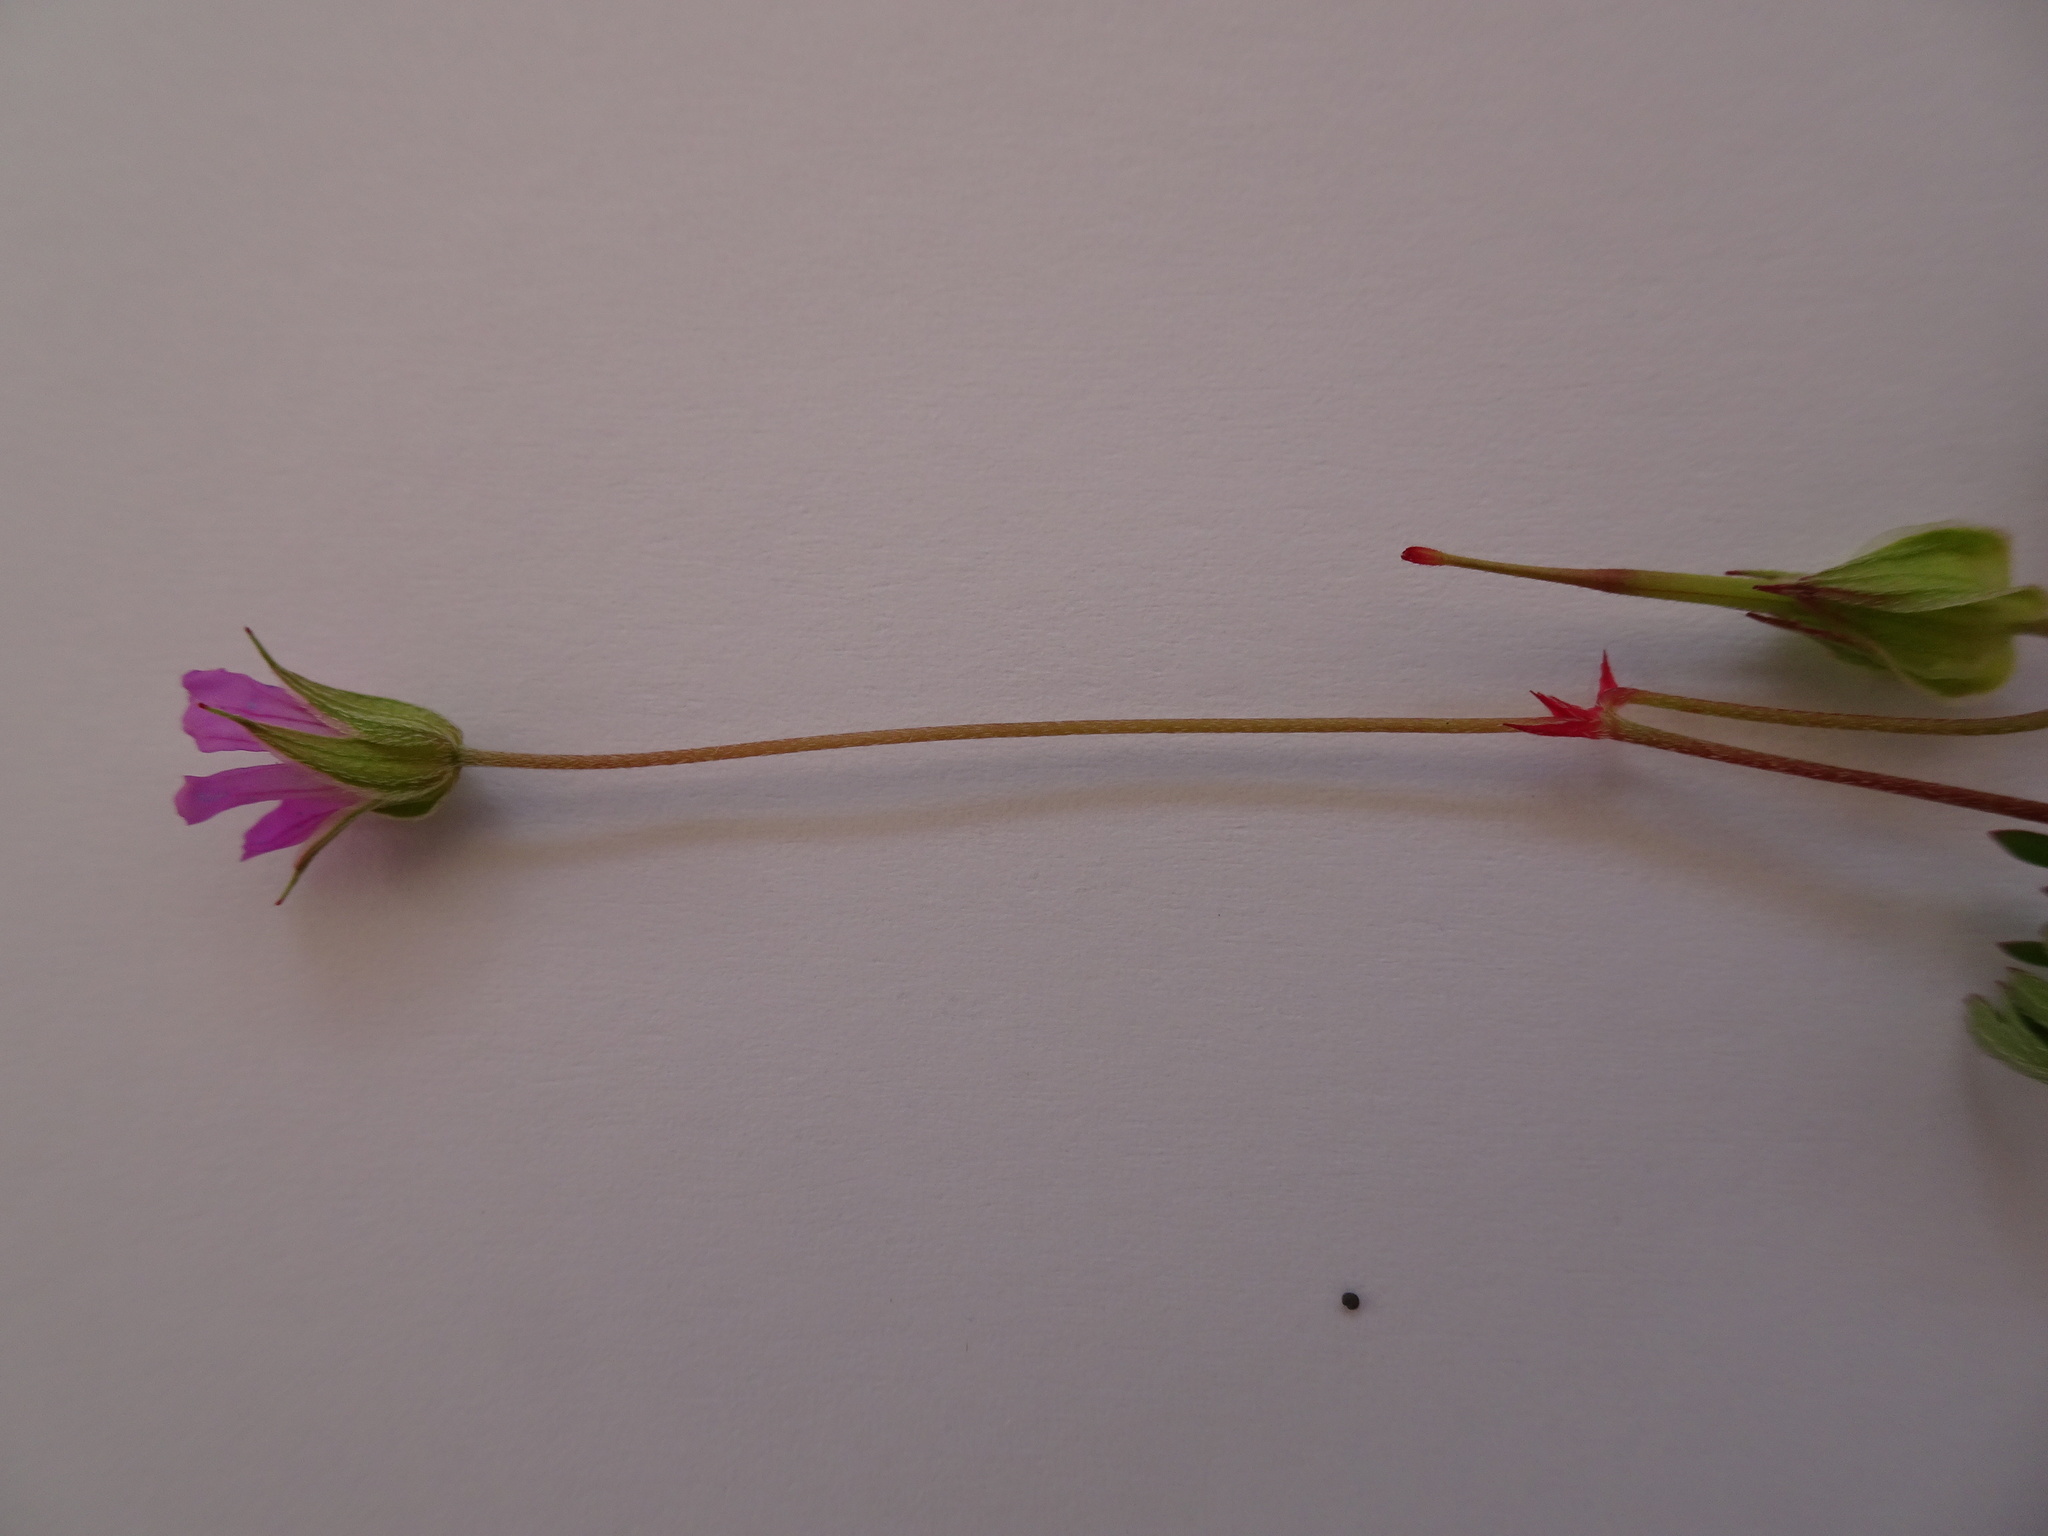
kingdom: Plantae
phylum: Tracheophyta
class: Magnoliopsida
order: Geraniales
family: Geraniaceae
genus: Geranium
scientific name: Geranium columbinum
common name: Long-stalked crane's-bill
